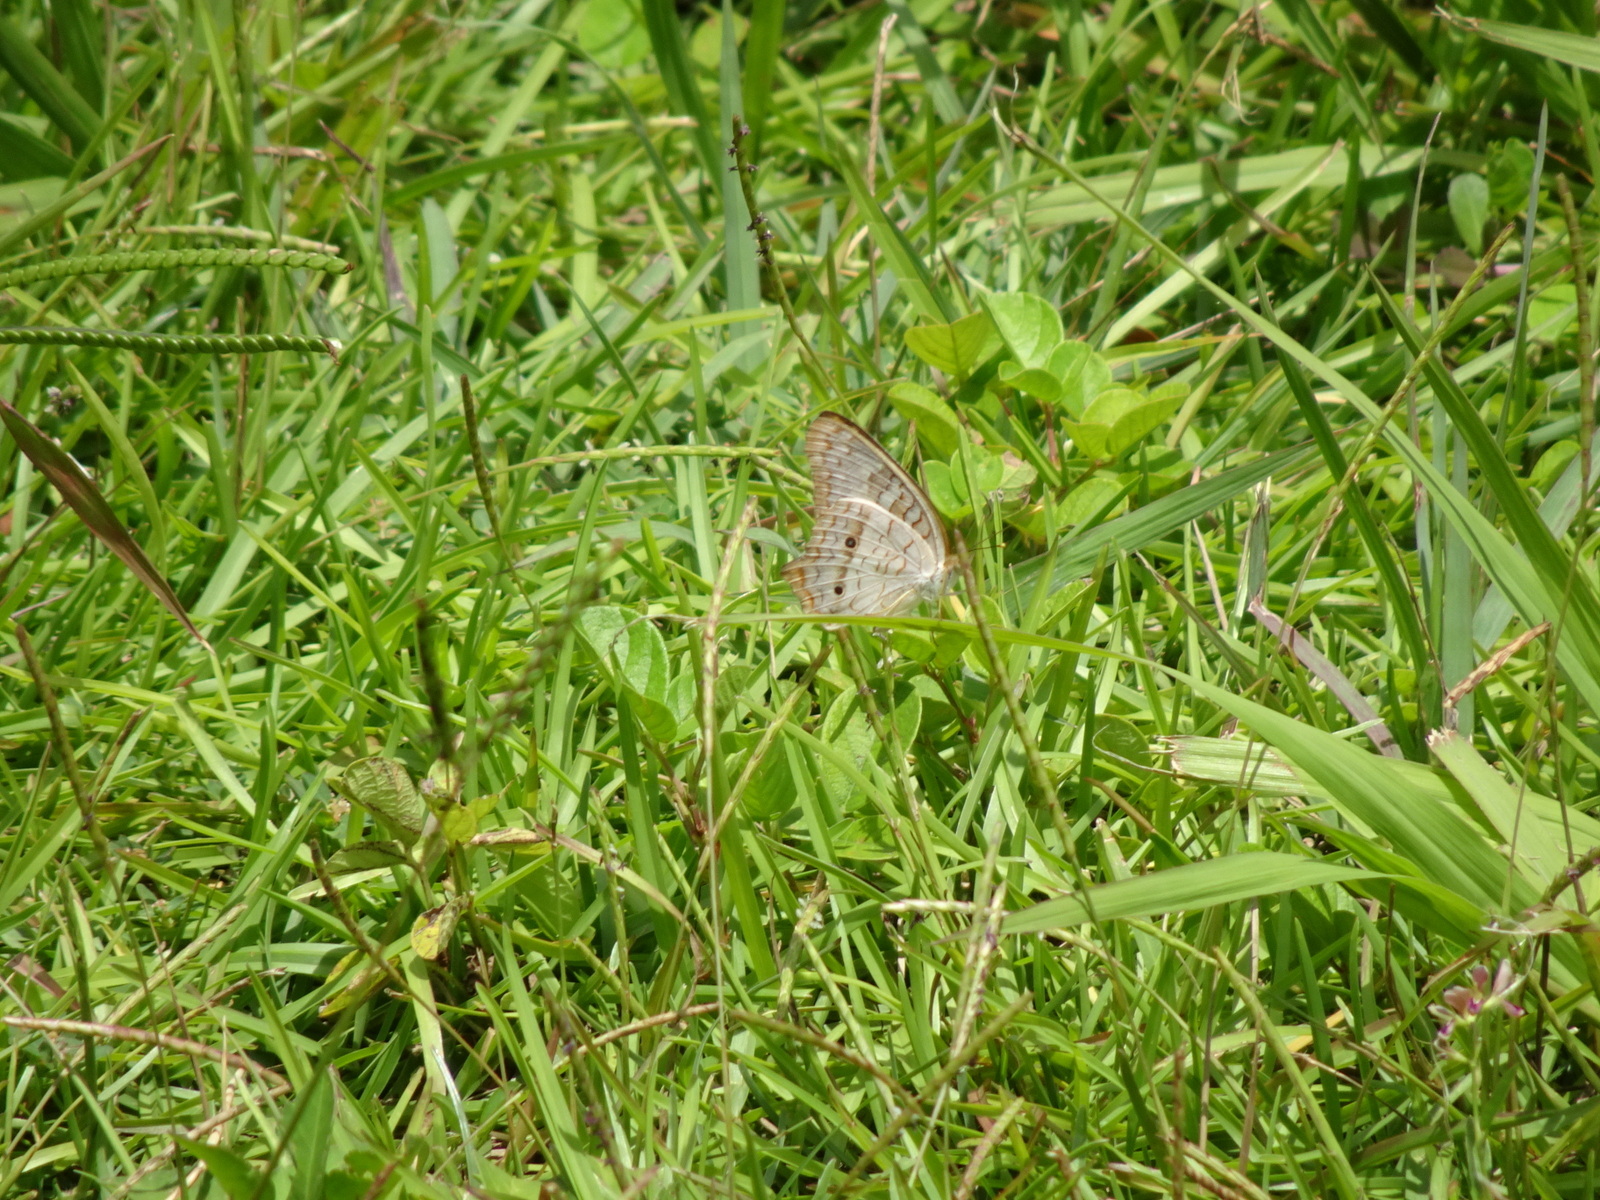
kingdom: Animalia
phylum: Arthropoda
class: Insecta
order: Lepidoptera
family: Nymphalidae
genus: Anartia
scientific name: Anartia jatrophae
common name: White peacock
